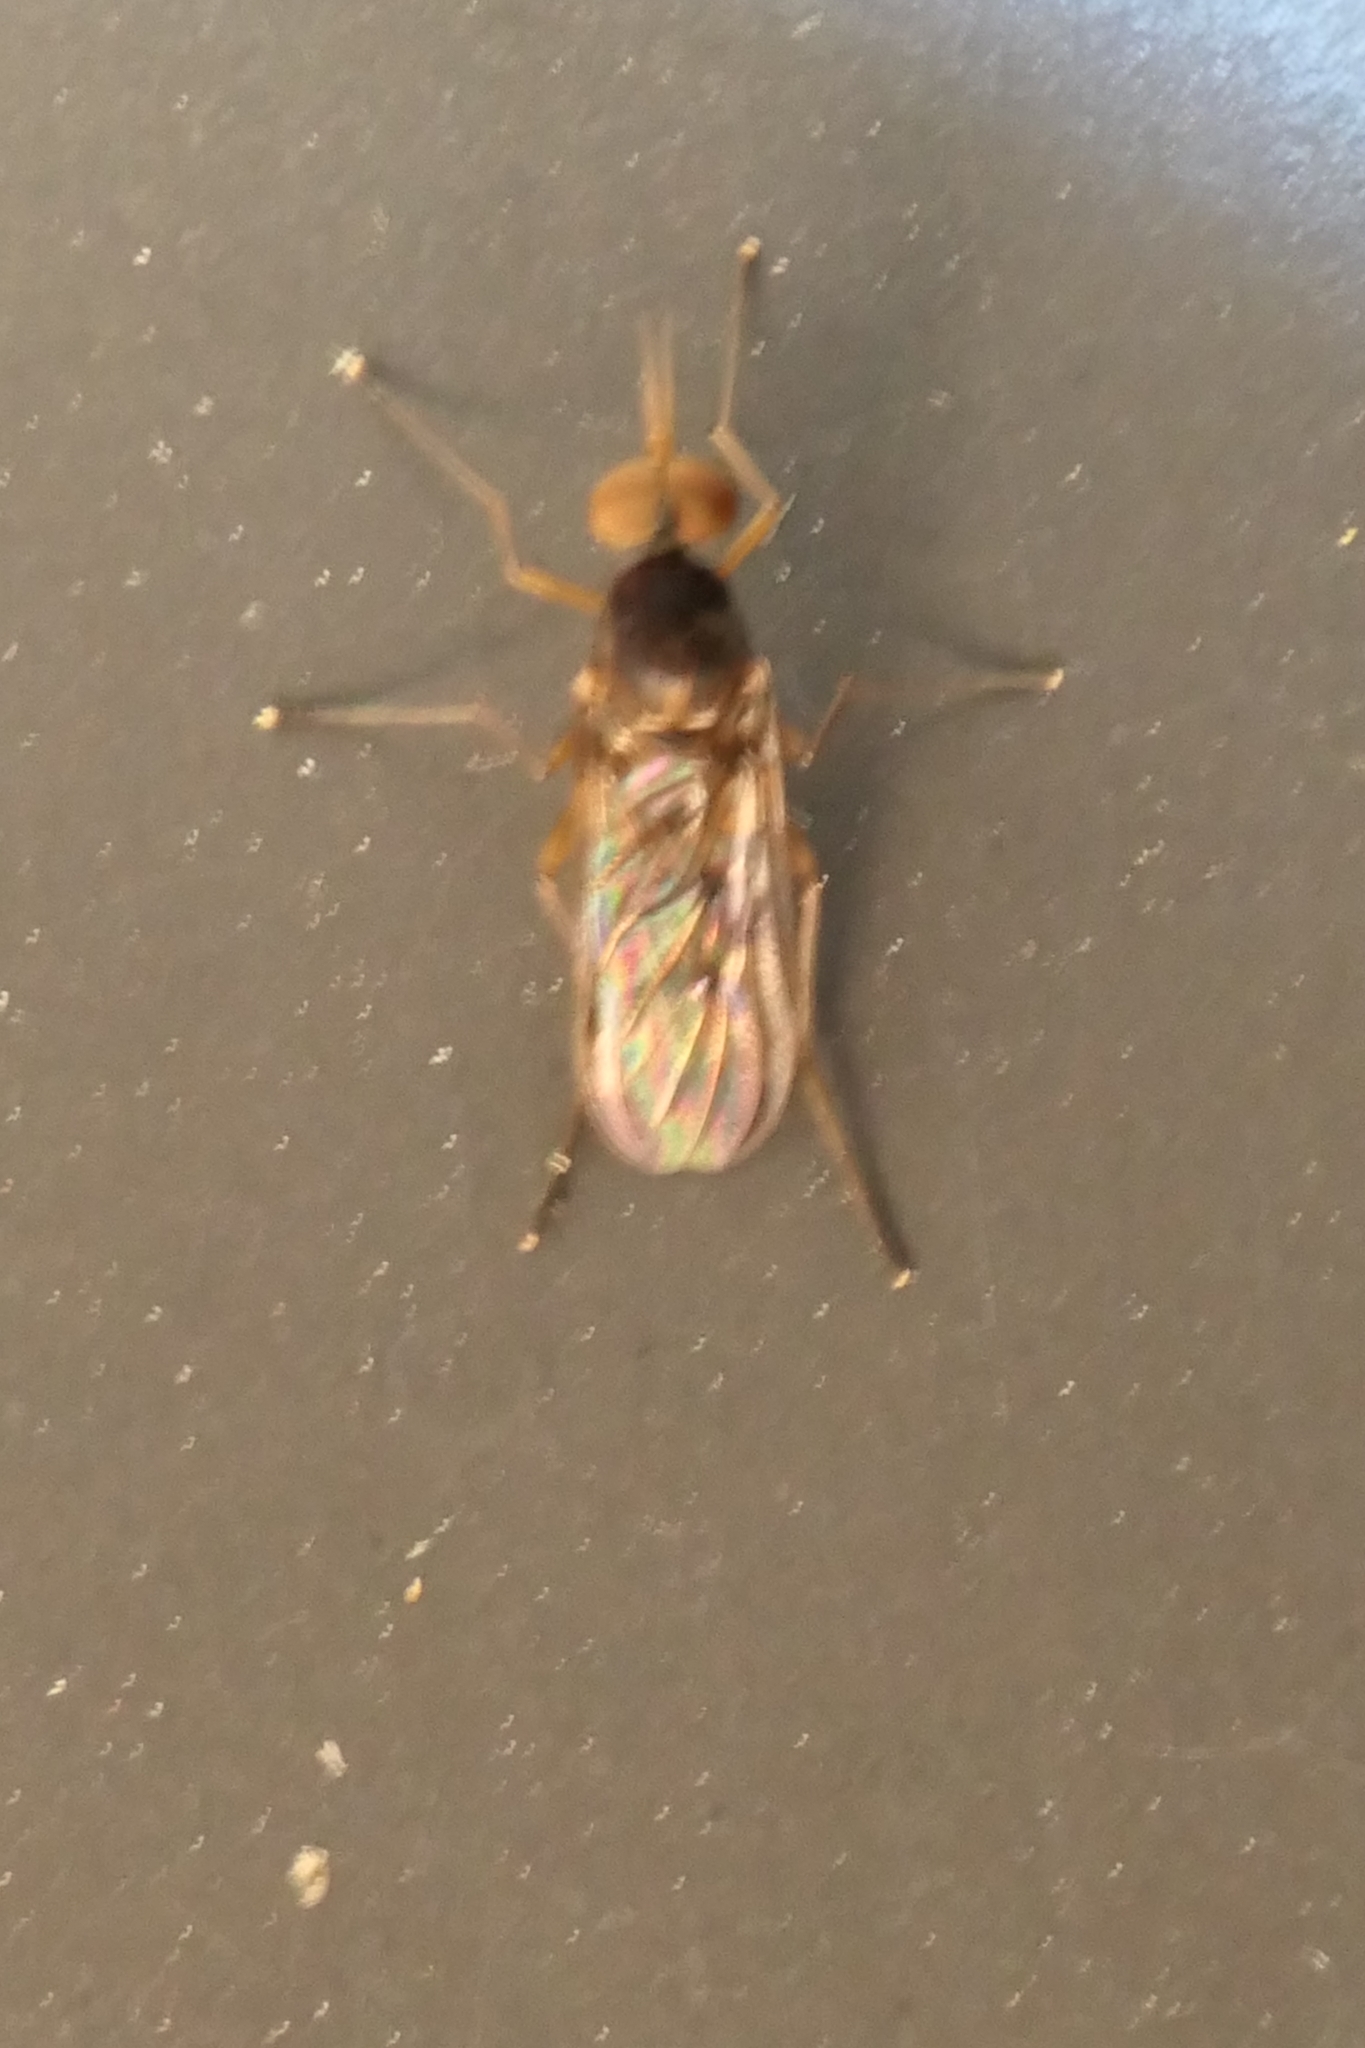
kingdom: Animalia
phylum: Arthropoda
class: Insecta
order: Diptera
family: Anisopodidae
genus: Sylvicola
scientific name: Sylvicola neozelandicus
